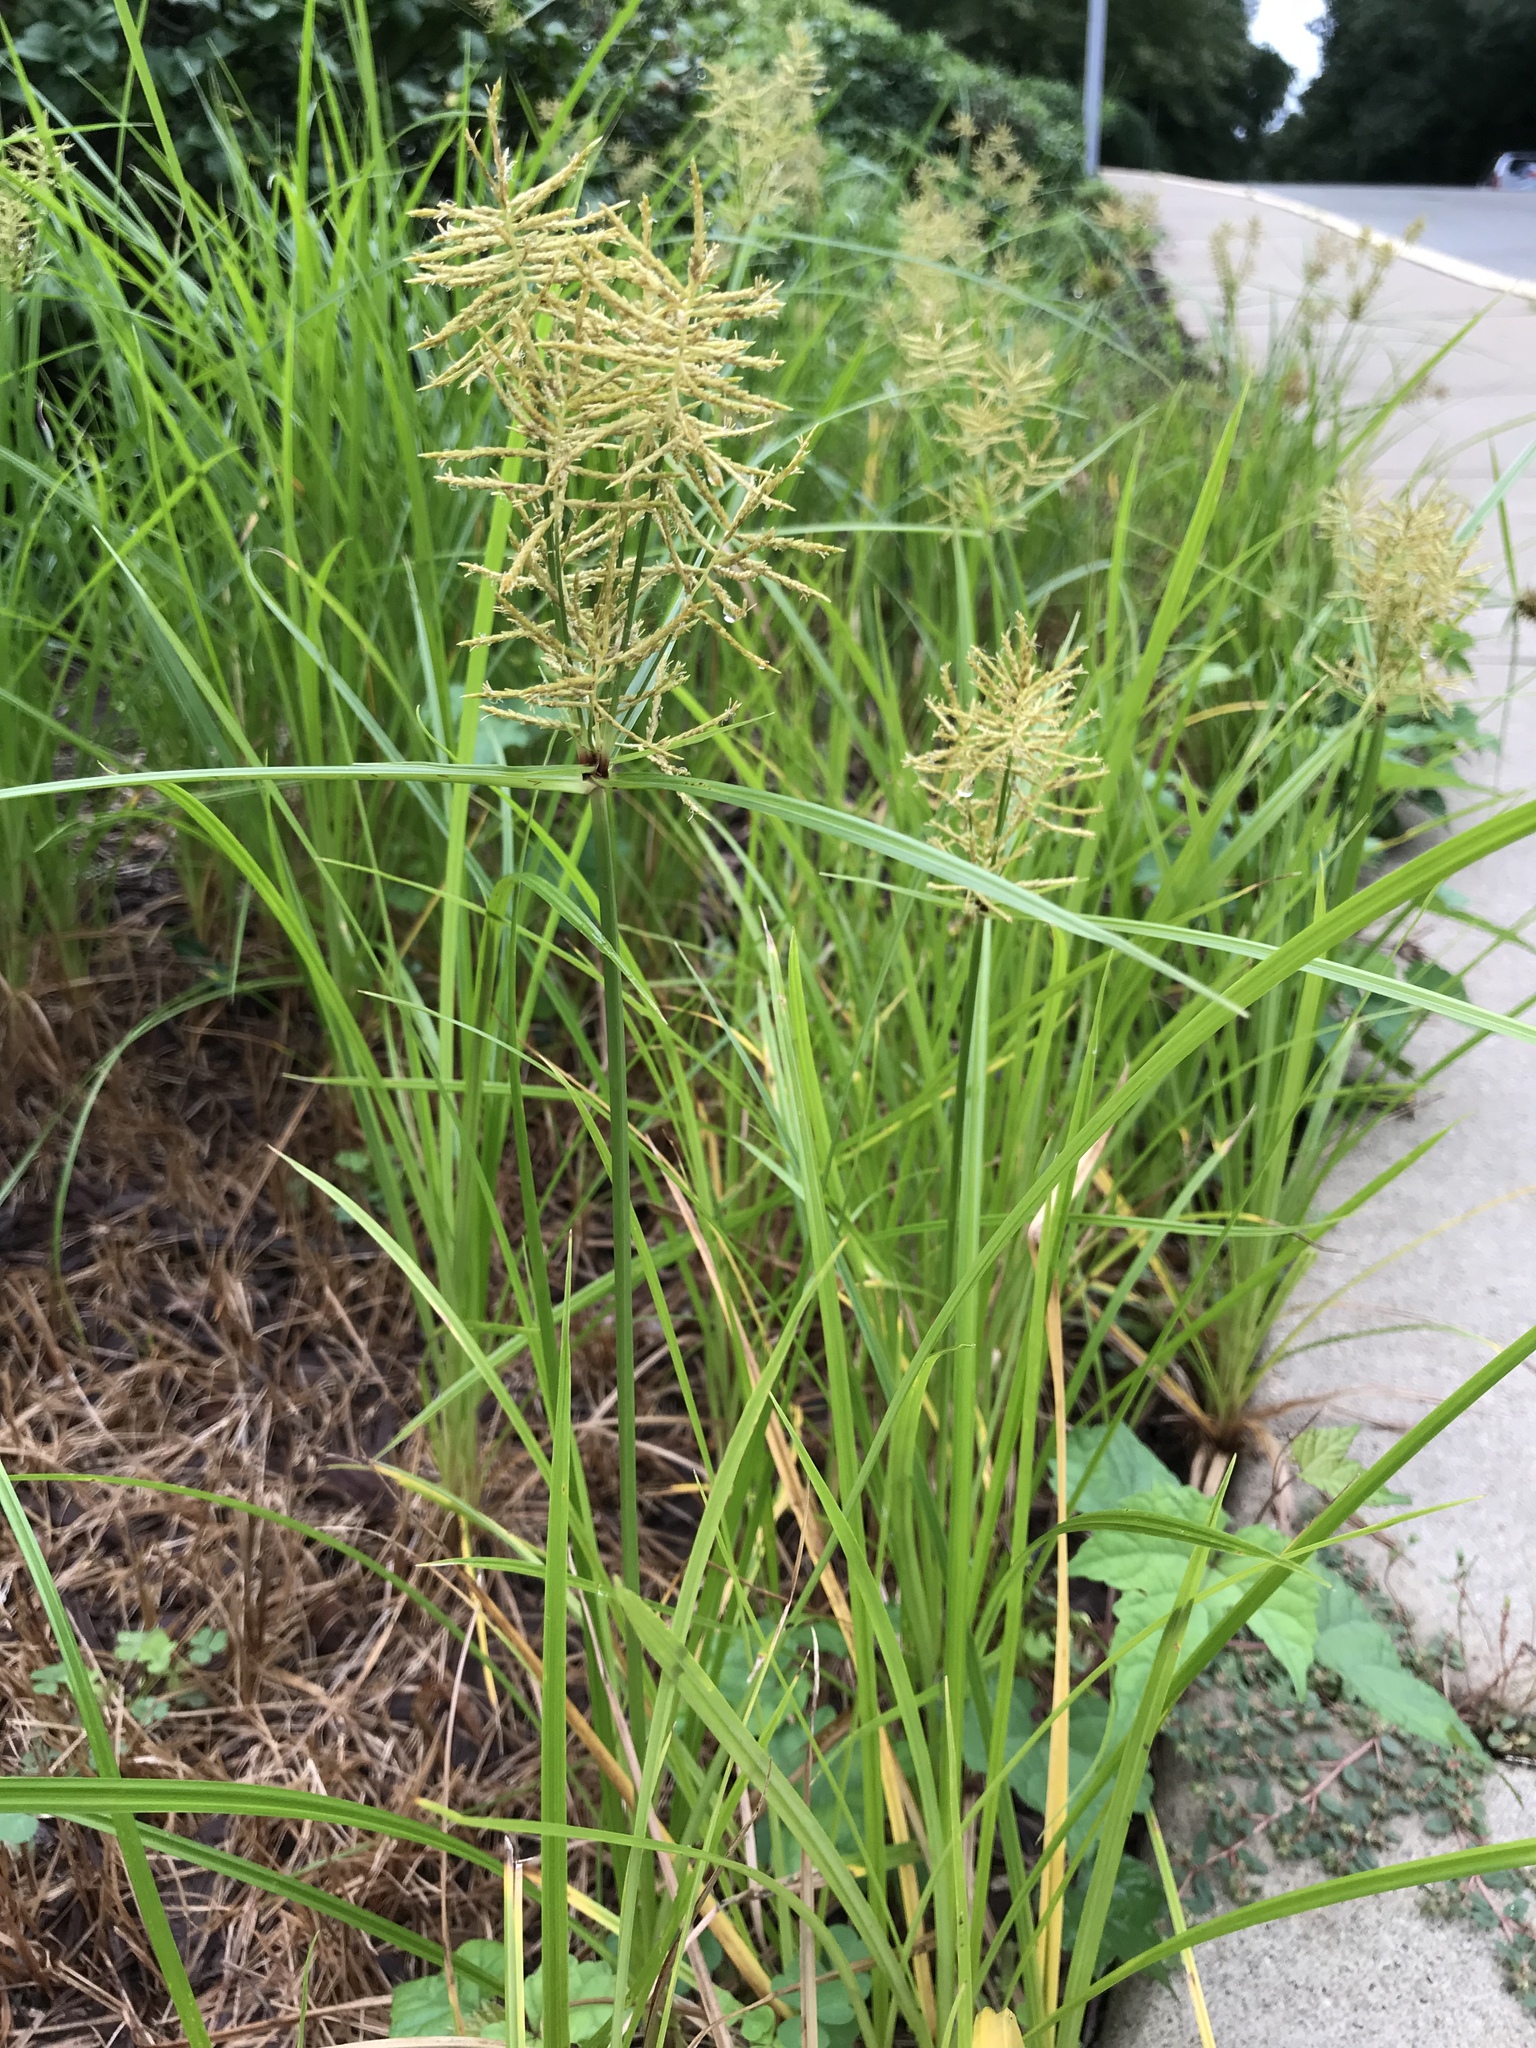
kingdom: Plantae
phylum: Tracheophyta
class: Liliopsida
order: Poales
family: Cyperaceae
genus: Cyperus
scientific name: Cyperus esculentus
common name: Yellow nutsedge
